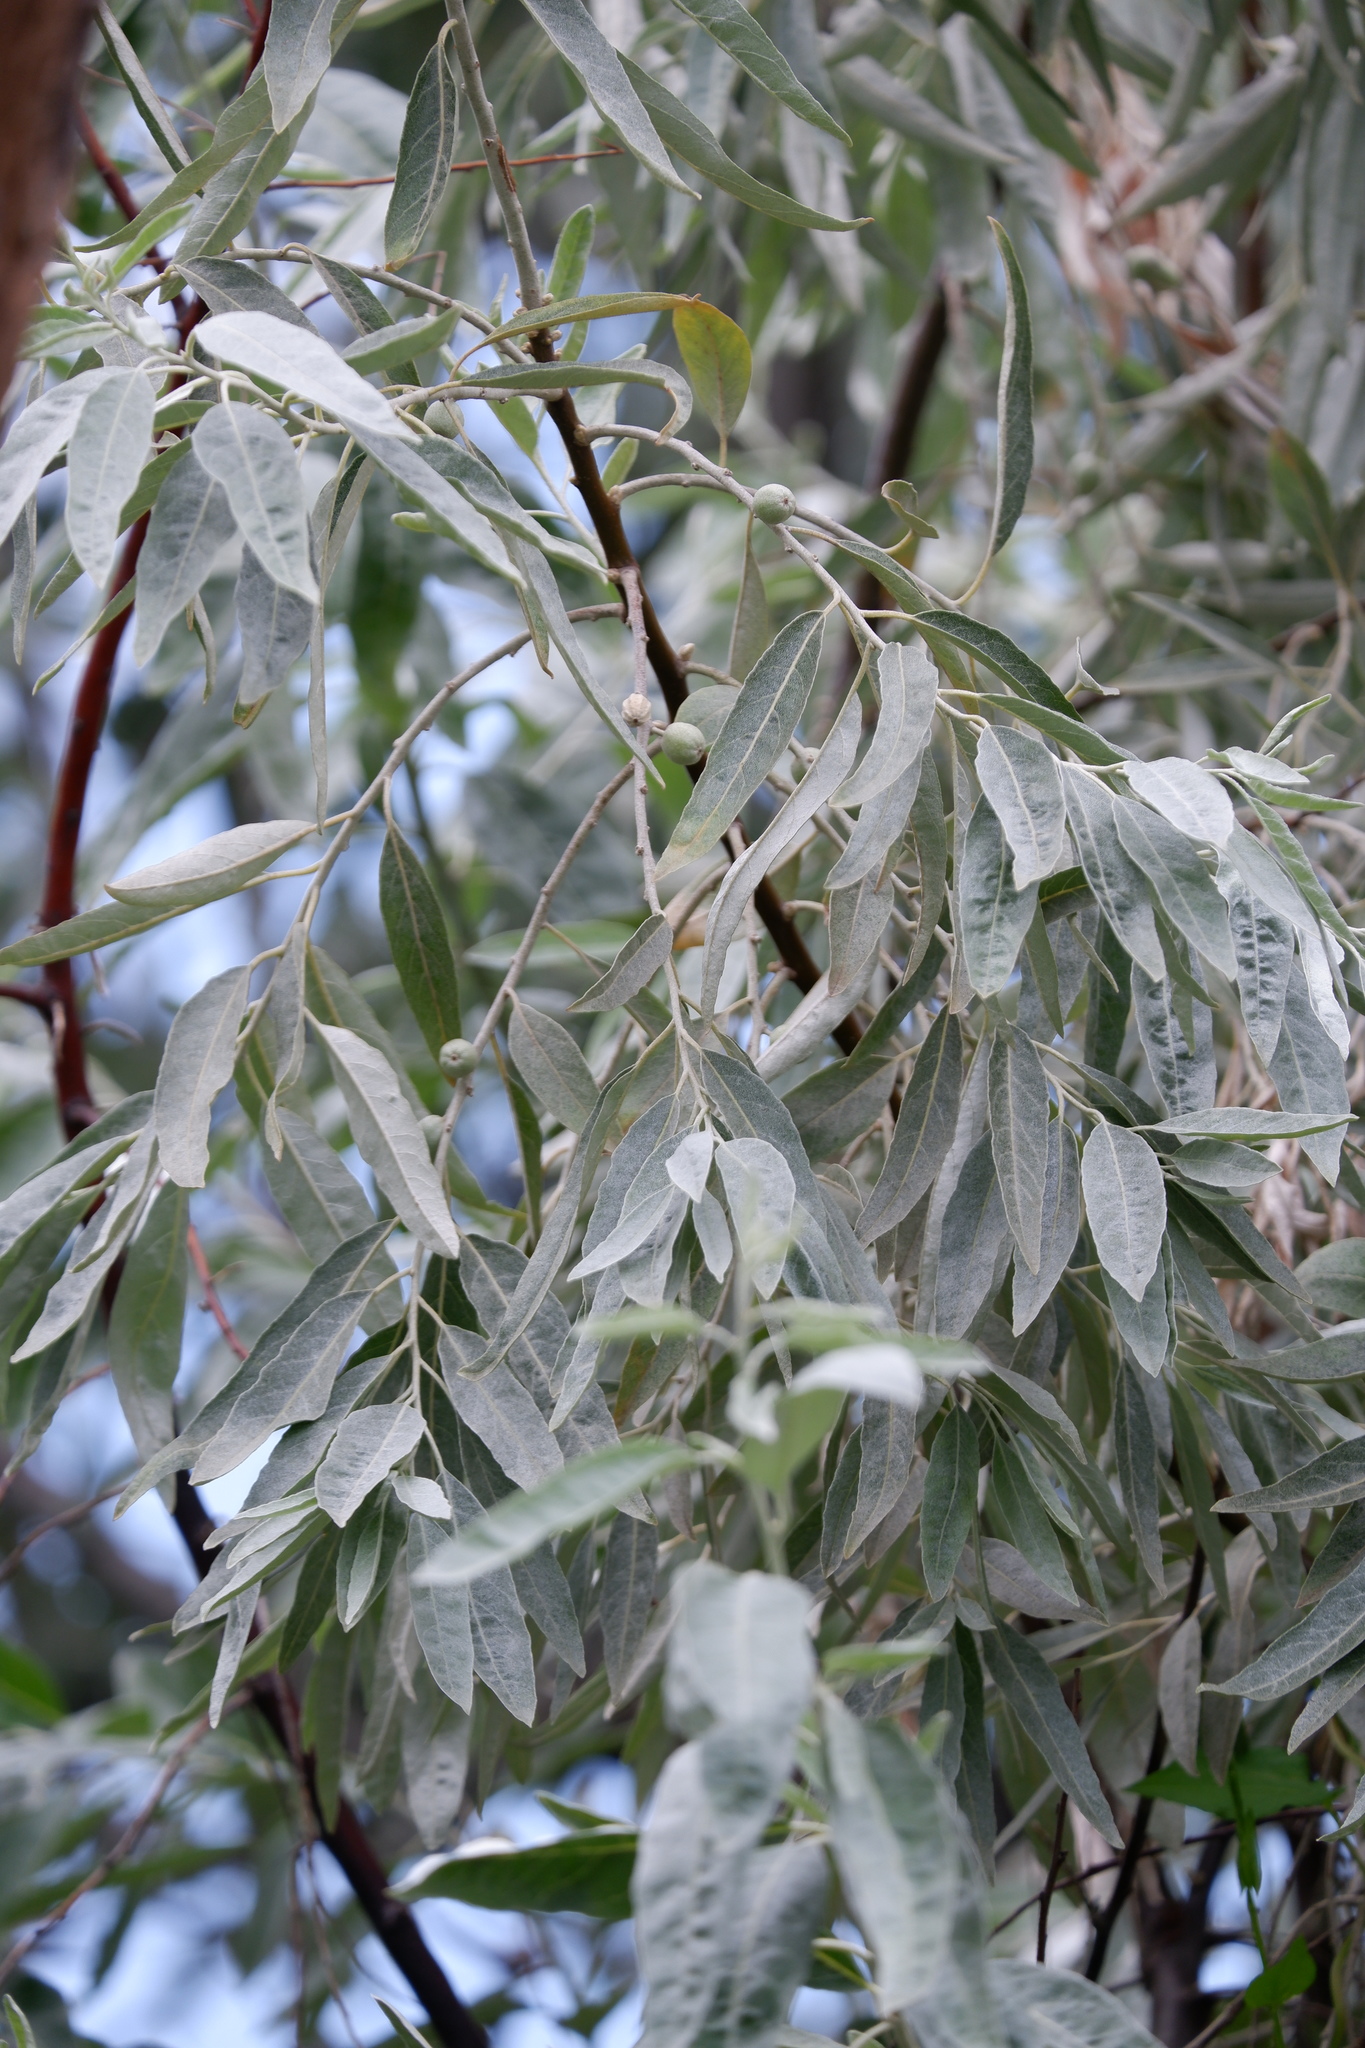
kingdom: Plantae
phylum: Tracheophyta
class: Magnoliopsida
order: Rosales
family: Elaeagnaceae
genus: Elaeagnus
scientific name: Elaeagnus angustifolia
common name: Russian olive
